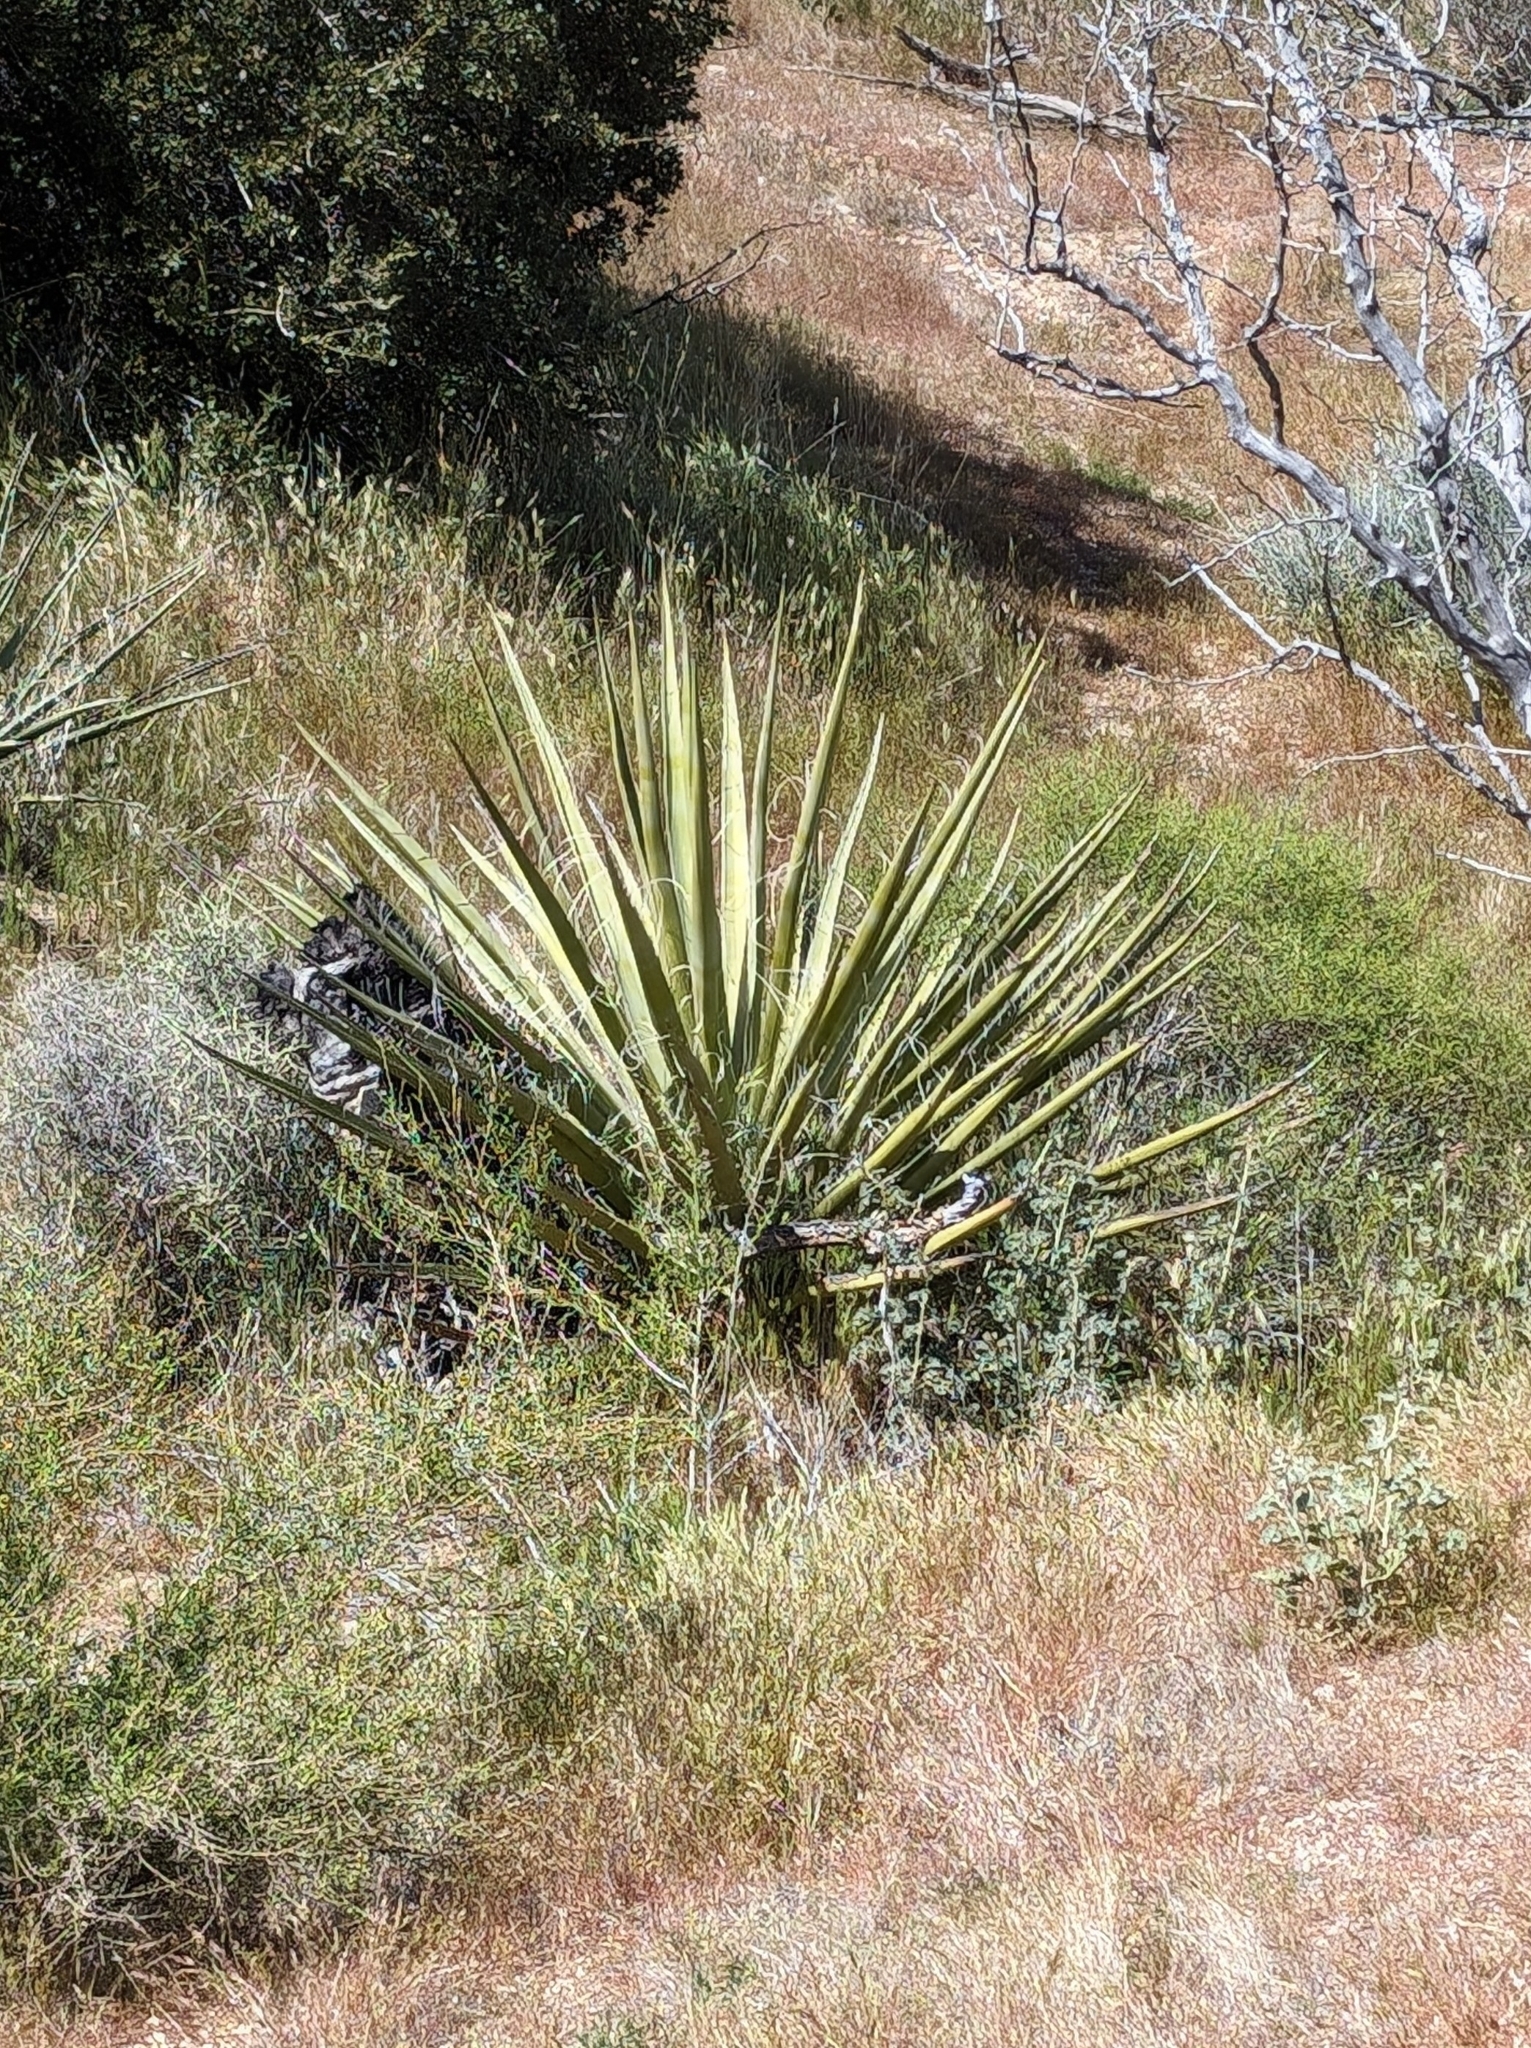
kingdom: Plantae
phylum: Tracheophyta
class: Liliopsida
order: Asparagales
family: Asparagaceae
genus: Yucca
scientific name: Yucca schidigera
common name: Mojave yucca
